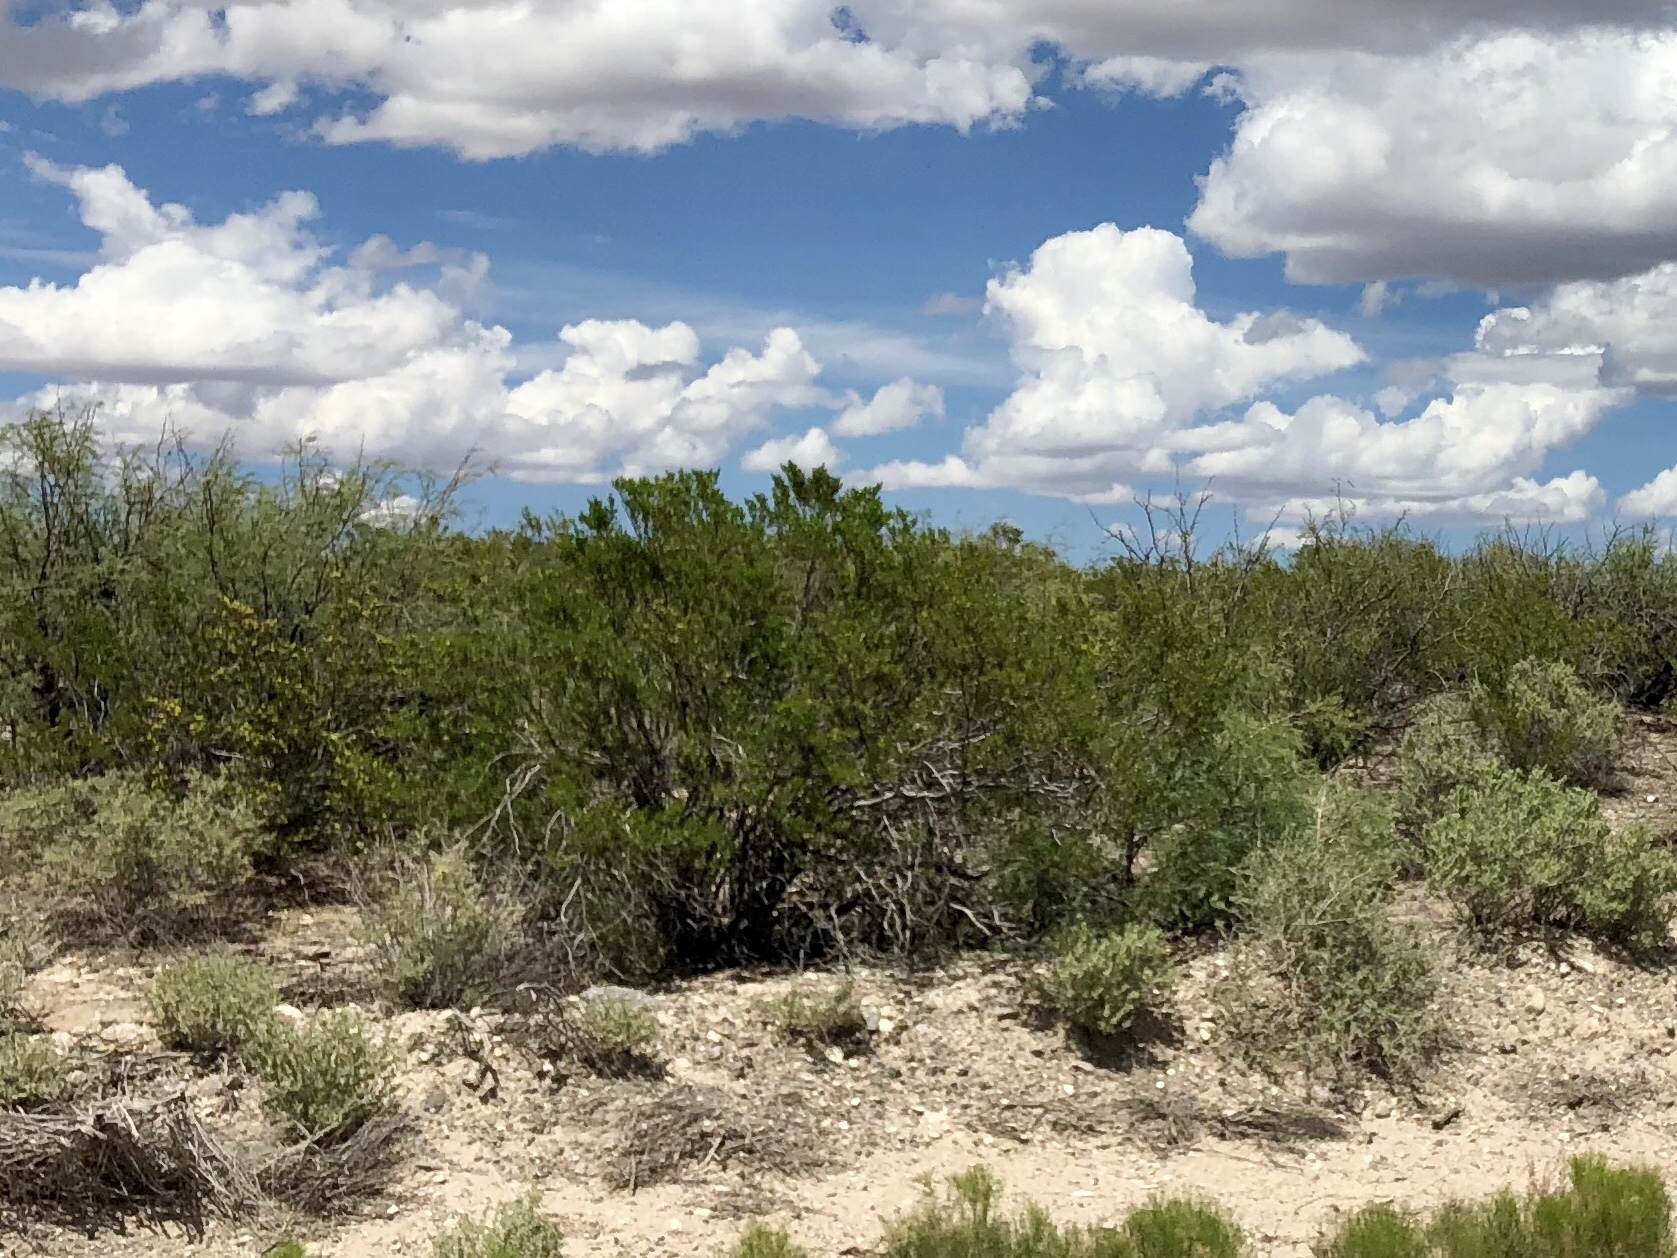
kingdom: Plantae
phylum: Tracheophyta
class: Magnoliopsida
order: Zygophyllales
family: Zygophyllaceae
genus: Larrea
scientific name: Larrea tridentata
